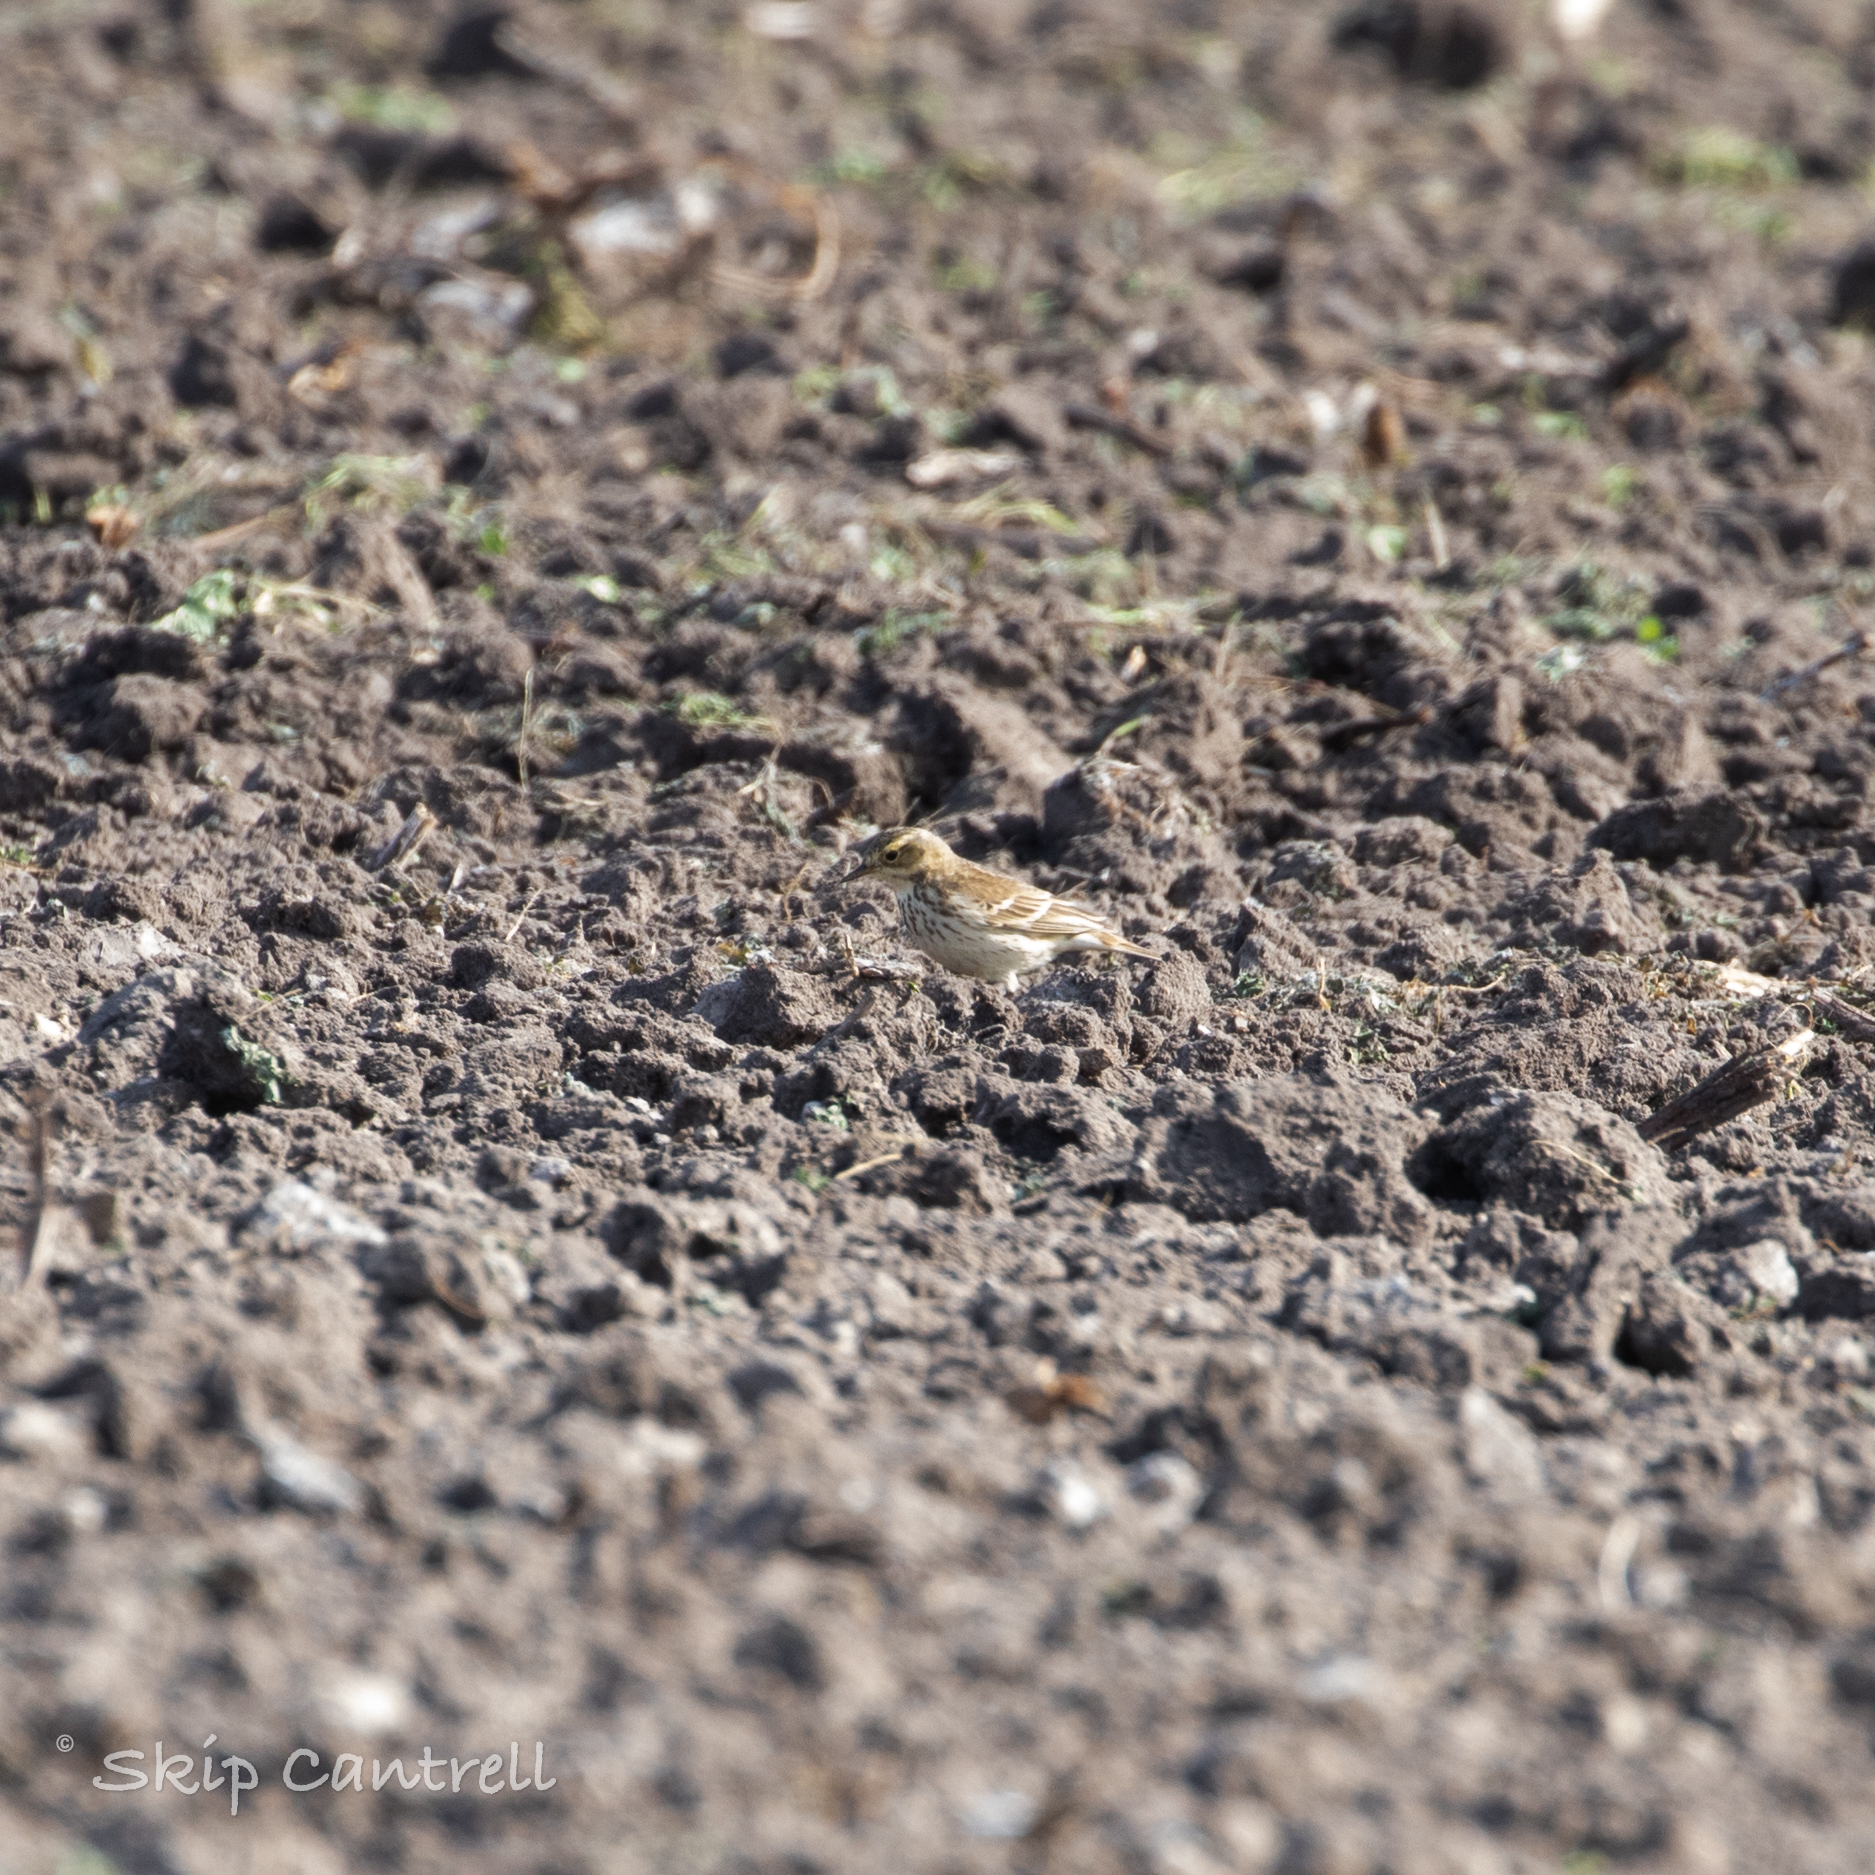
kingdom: Animalia
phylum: Chordata
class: Aves
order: Passeriformes
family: Motacillidae
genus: Anthus
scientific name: Anthus rubescens
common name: Buff-bellied pipit
